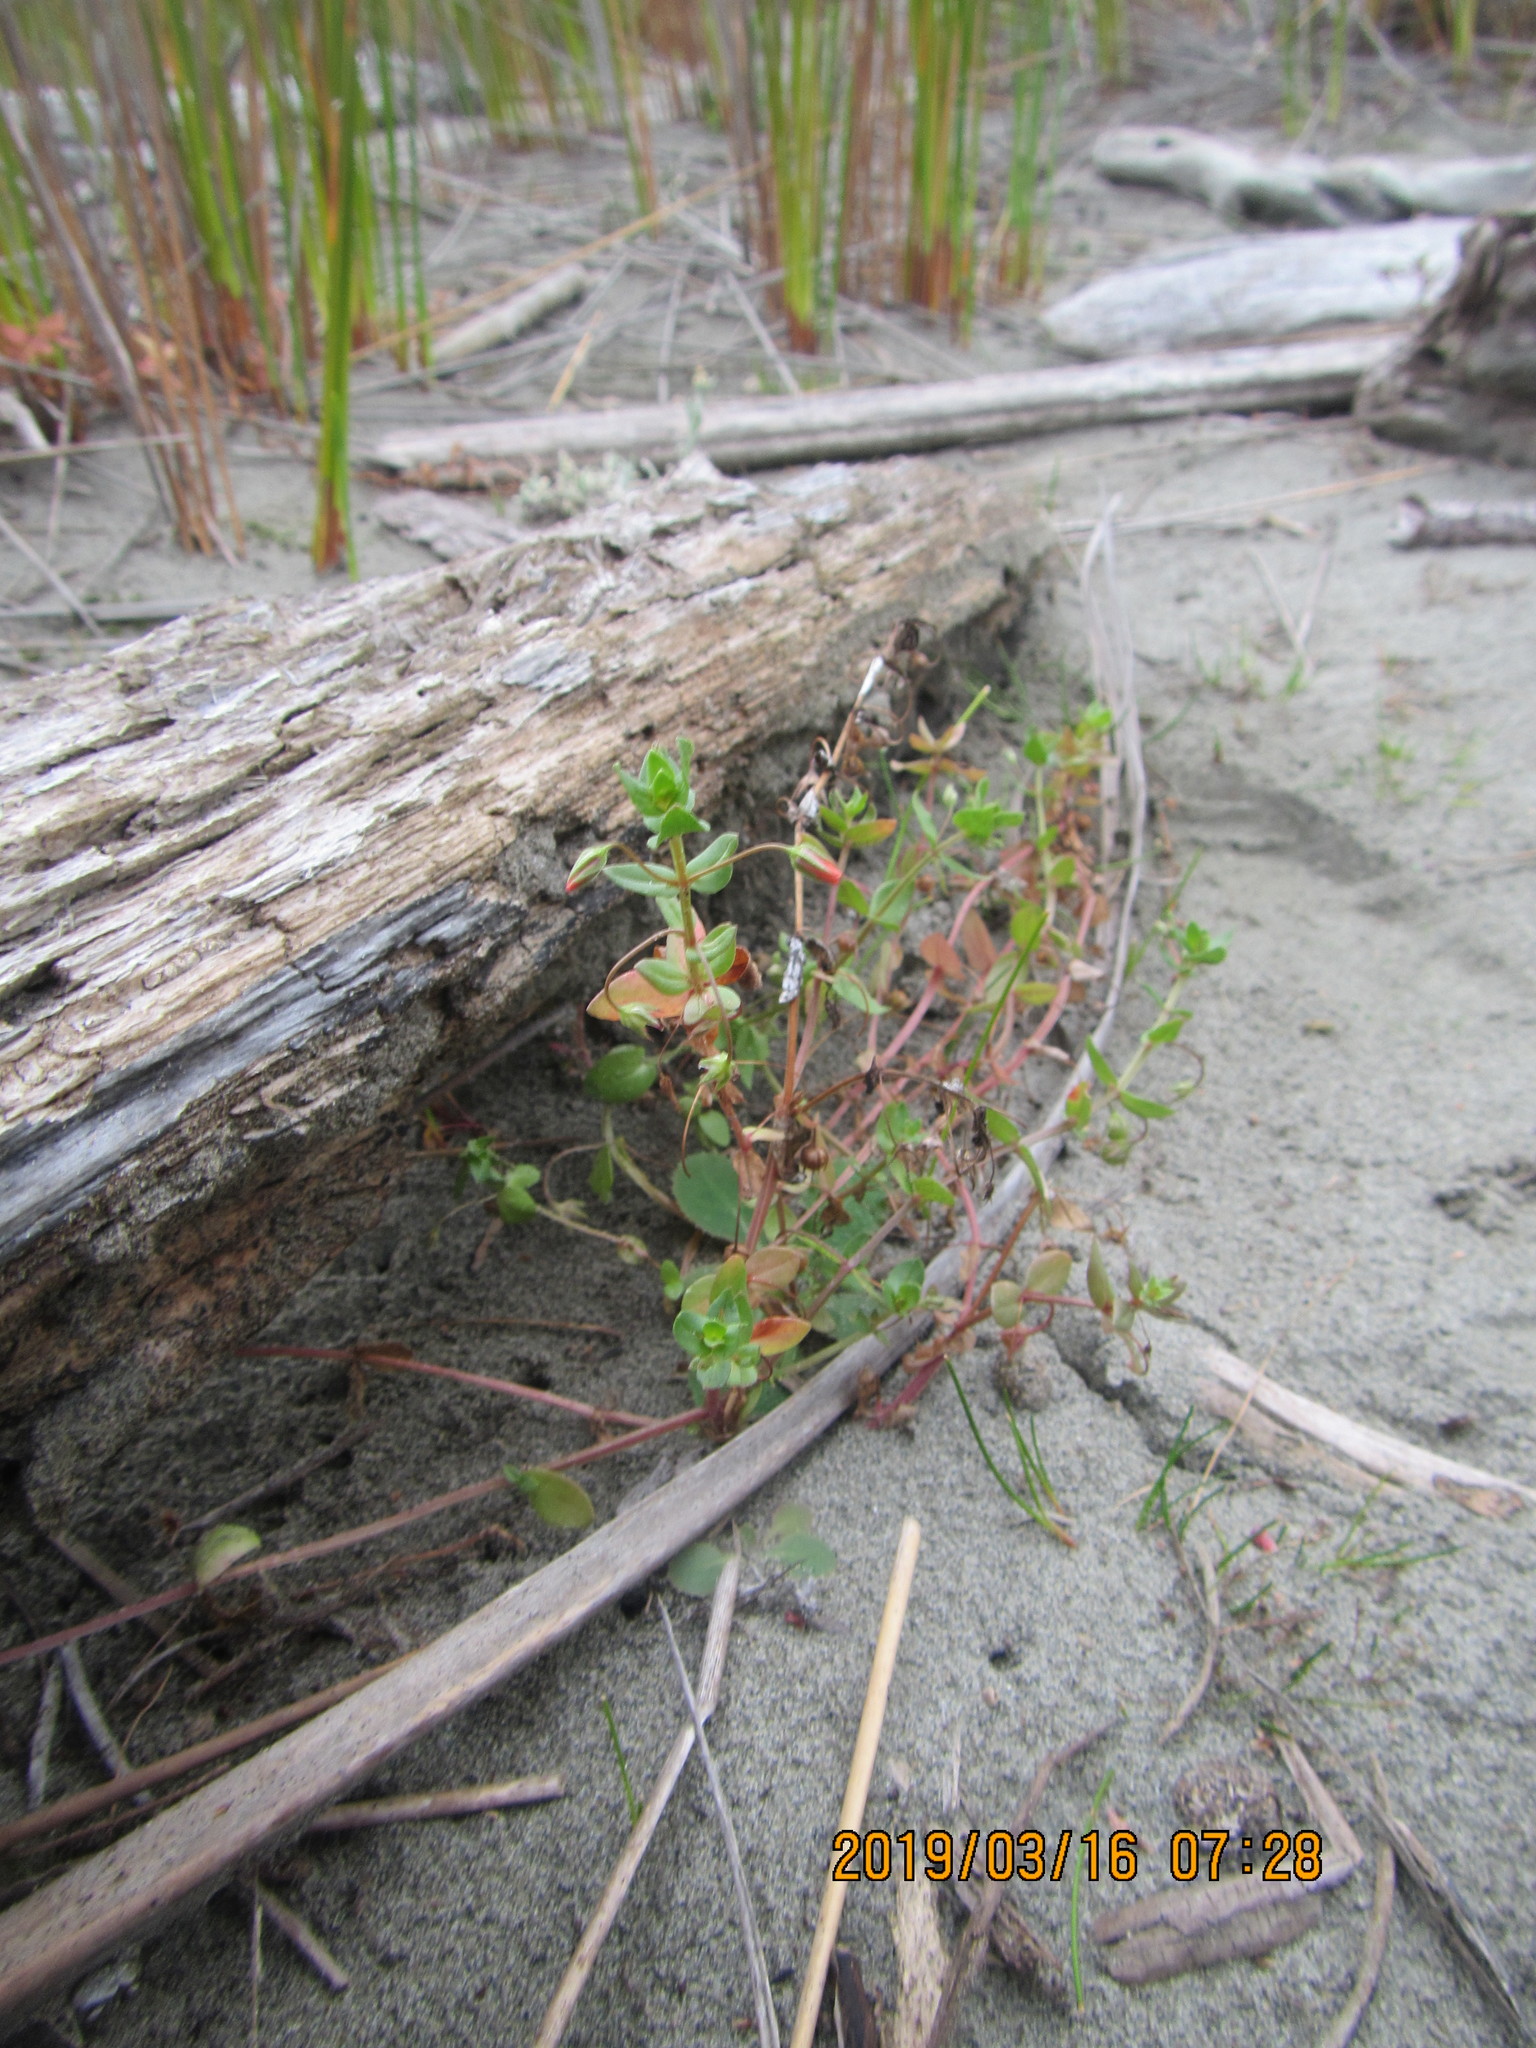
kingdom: Plantae
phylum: Tracheophyta
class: Magnoliopsida
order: Ericales
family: Primulaceae
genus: Lysimachia
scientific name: Lysimachia arvensis
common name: Scarlet pimpernel
